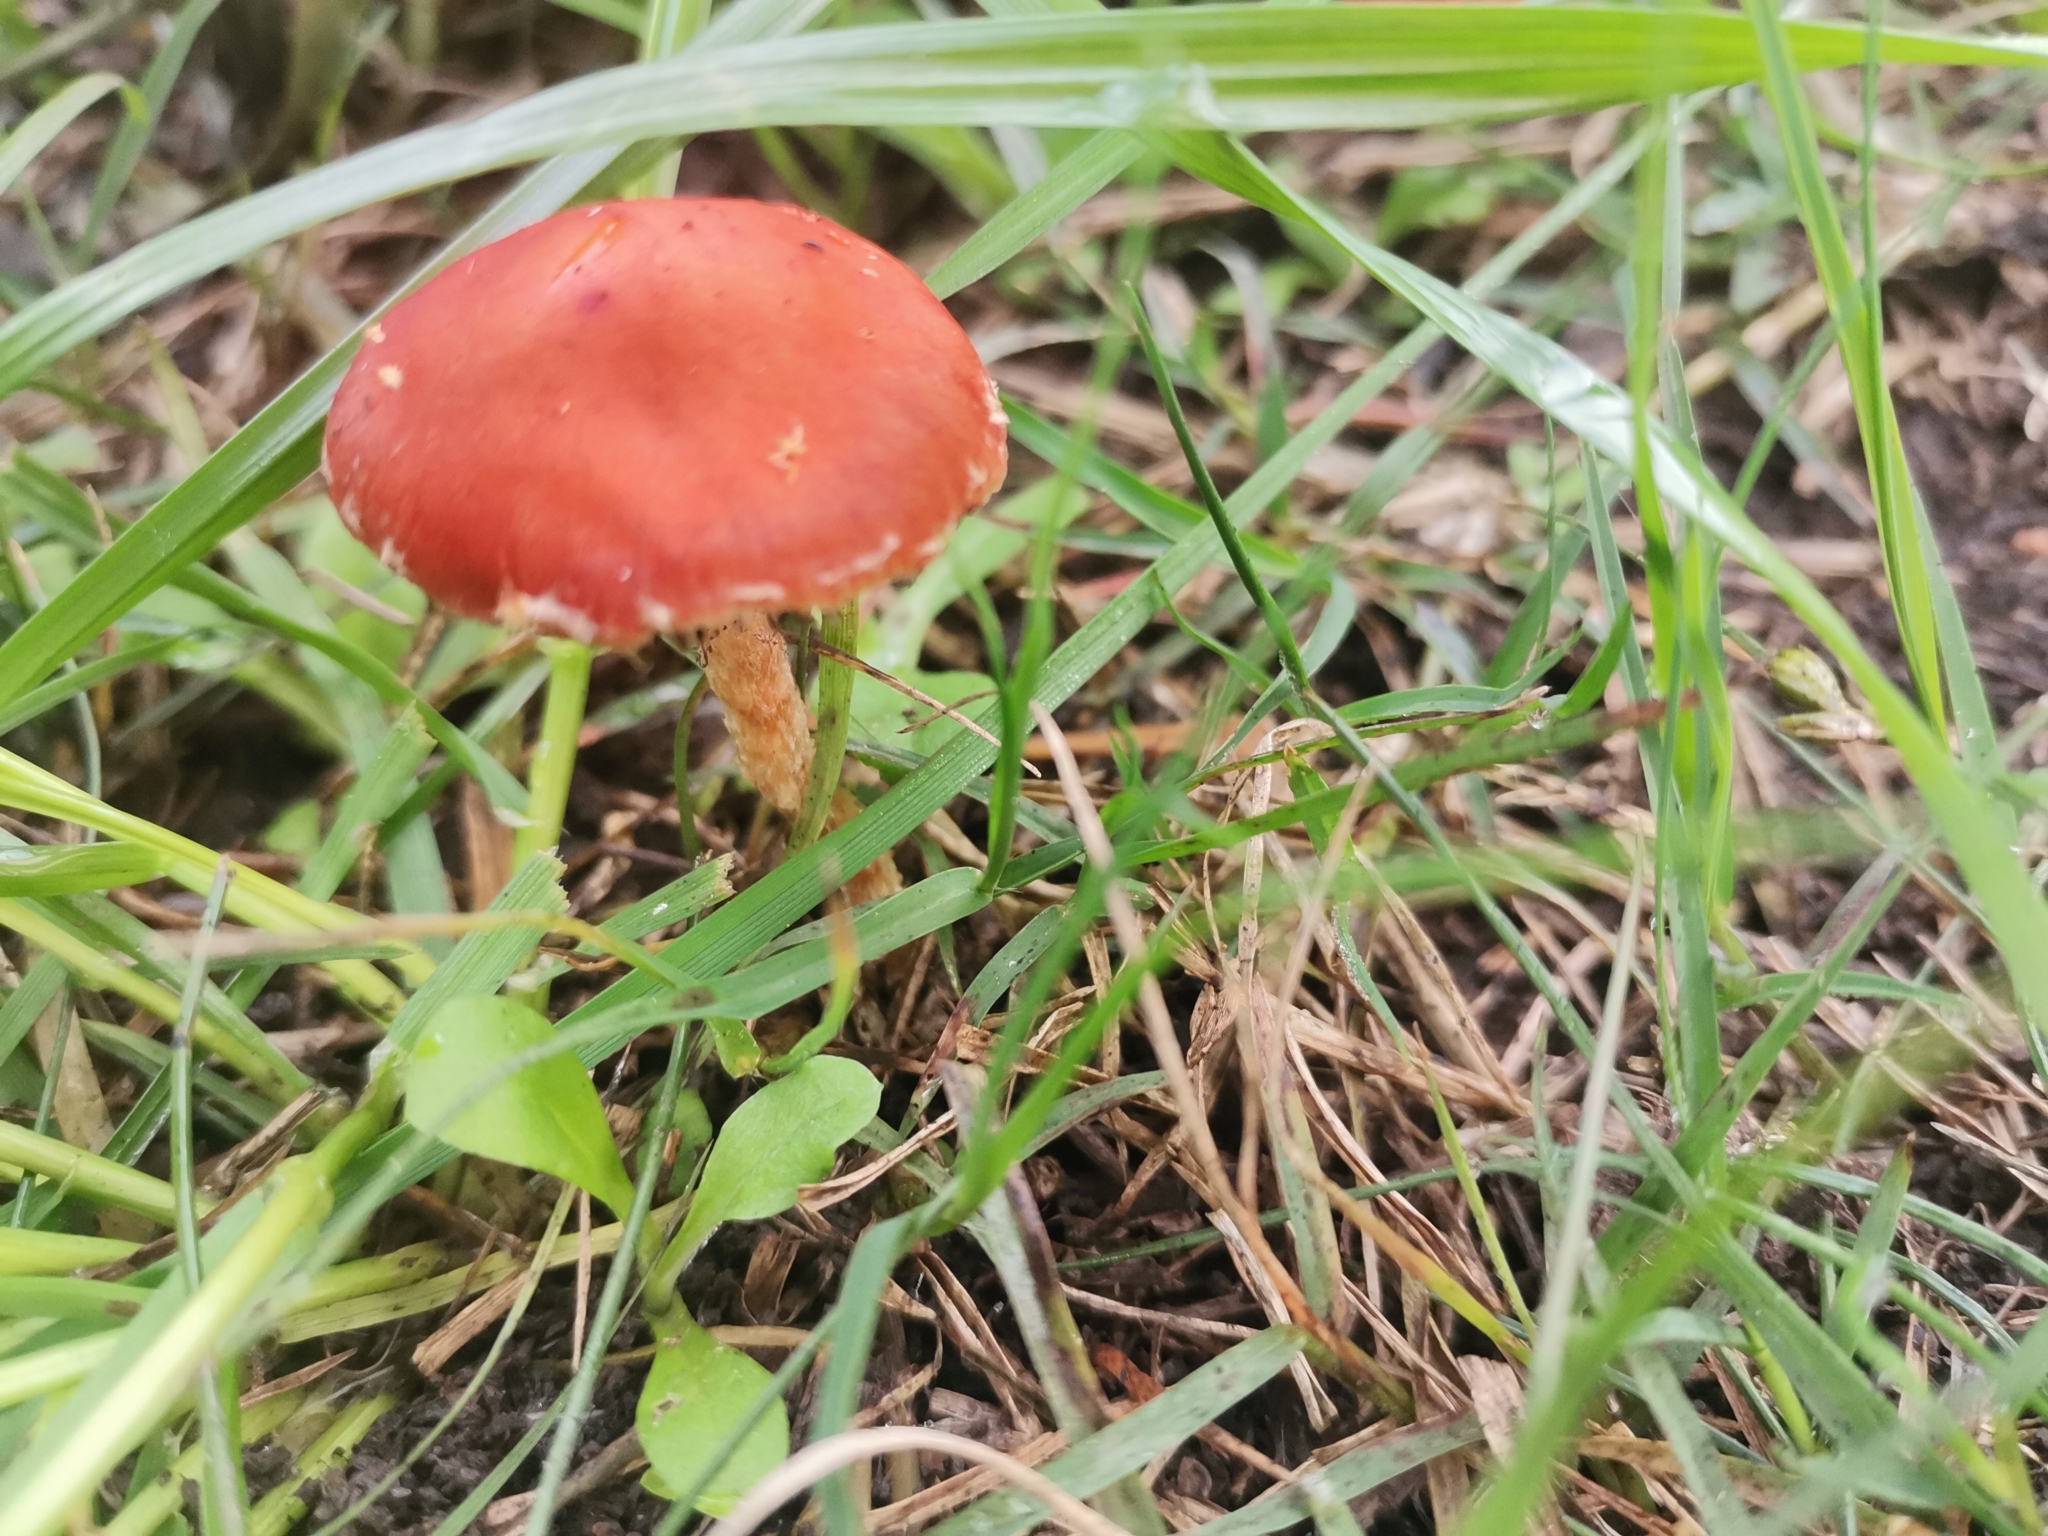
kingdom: Fungi
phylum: Basidiomycota
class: Agaricomycetes
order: Agaricales
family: Strophariaceae
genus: Leratiomyces
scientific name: Leratiomyces ceres
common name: Redlead roundhead
